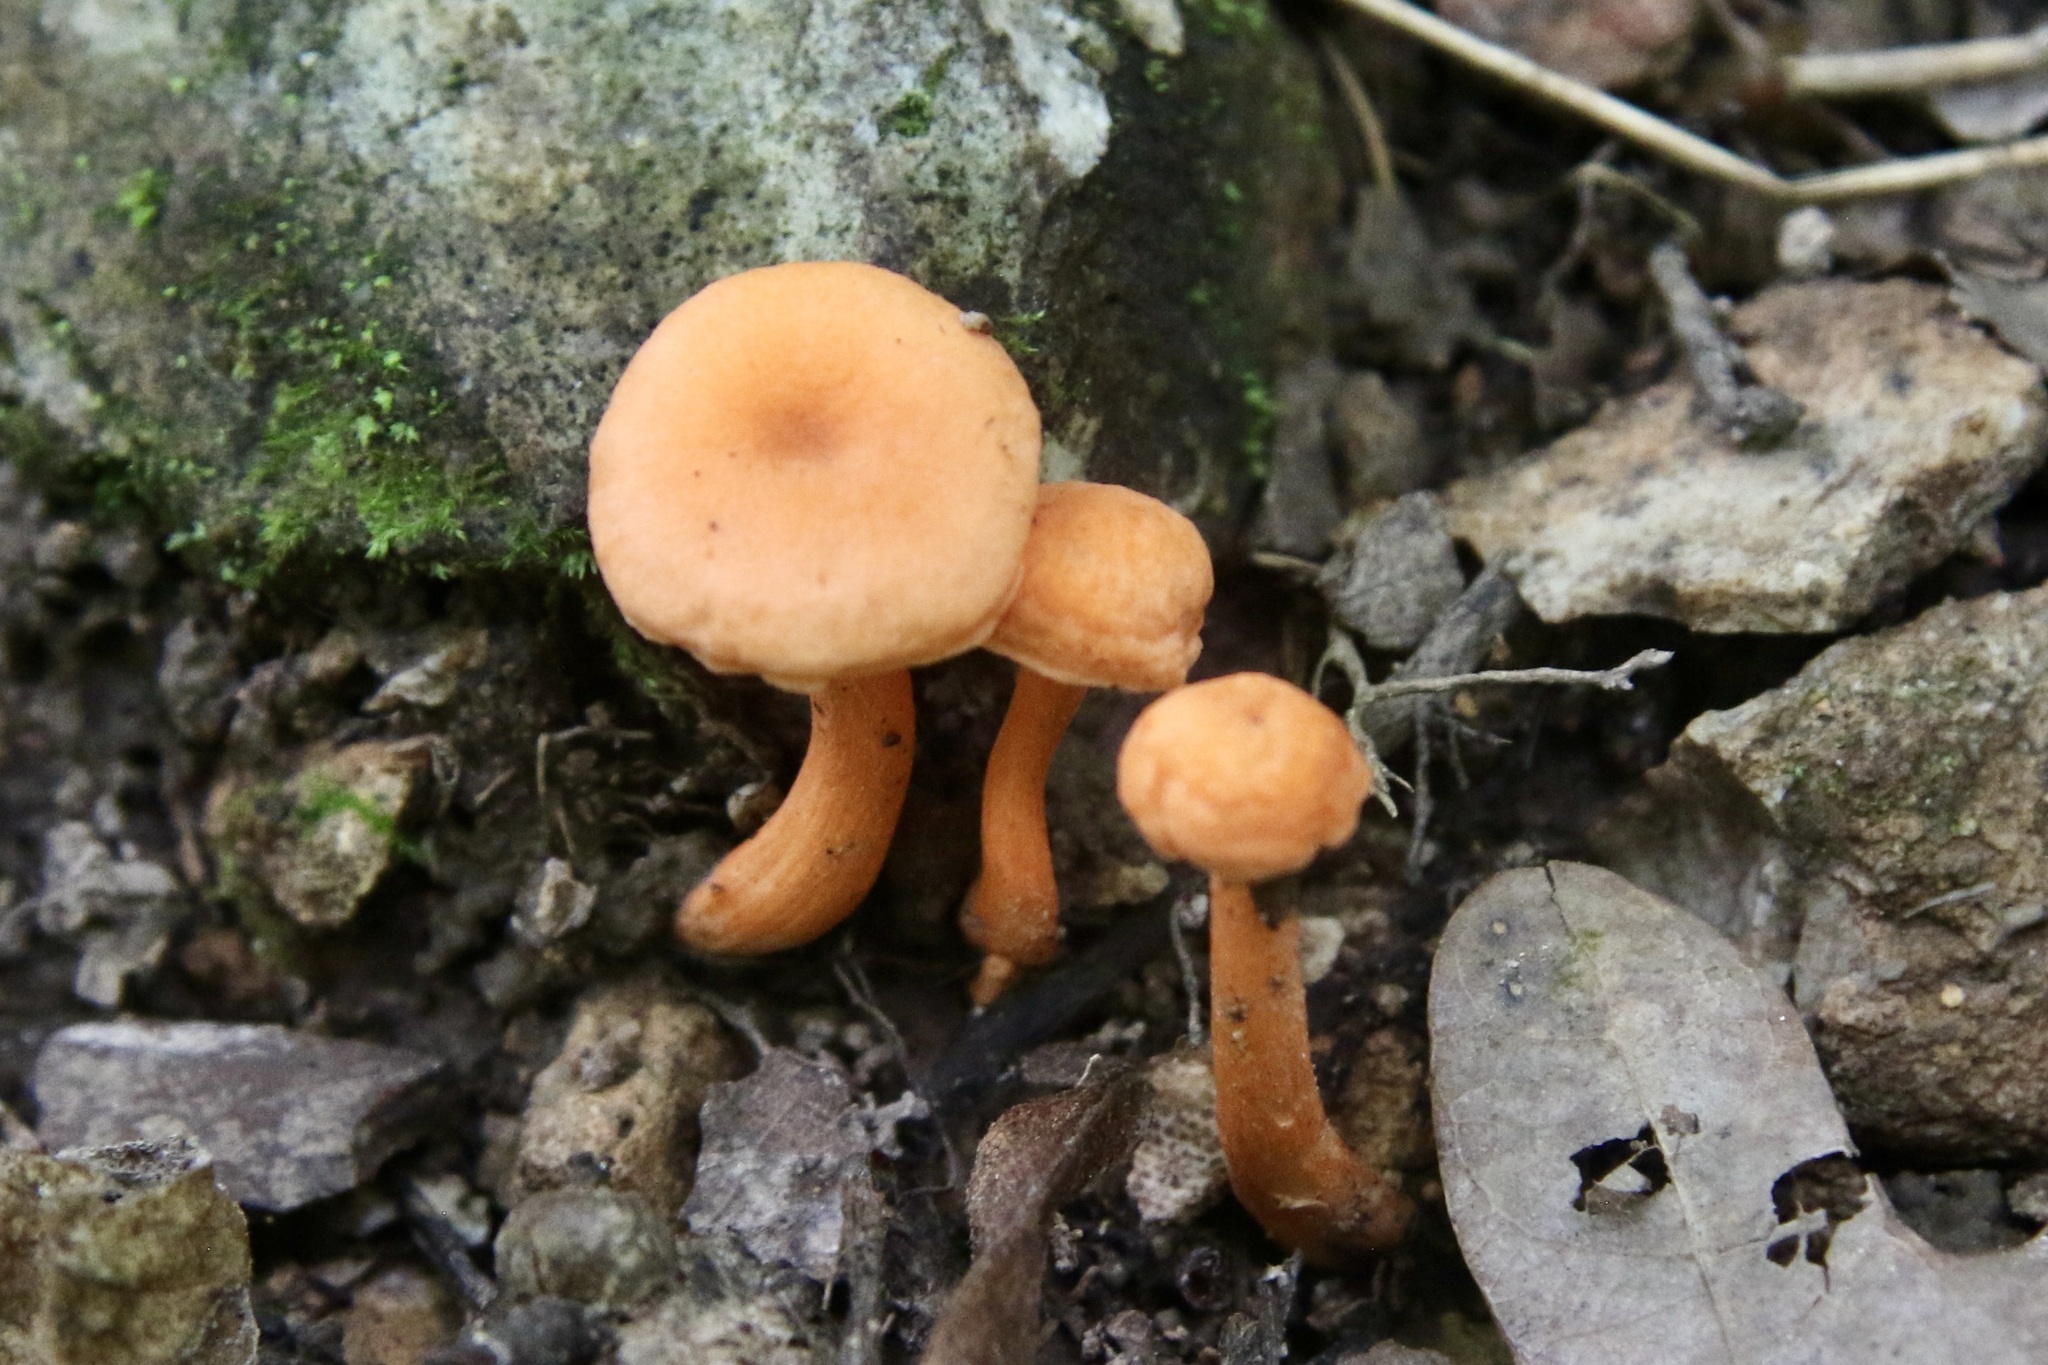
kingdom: Fungi
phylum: Basidiomycota
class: Agaricomycetes
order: Agaricales
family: Hydnangiaceae
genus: Laccaria
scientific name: Laccaria laccata
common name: Deceiver
